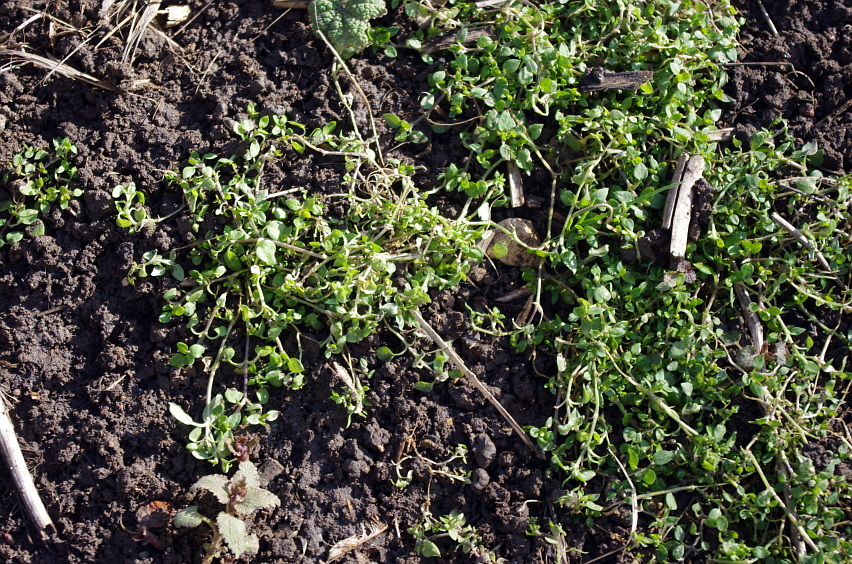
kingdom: Plantae
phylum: Tracheophyta
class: Magnoliopsida
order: Caryophyllales
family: Caryophyllaceae
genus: Stellaria
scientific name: Stellaria media
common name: Common chickweed
